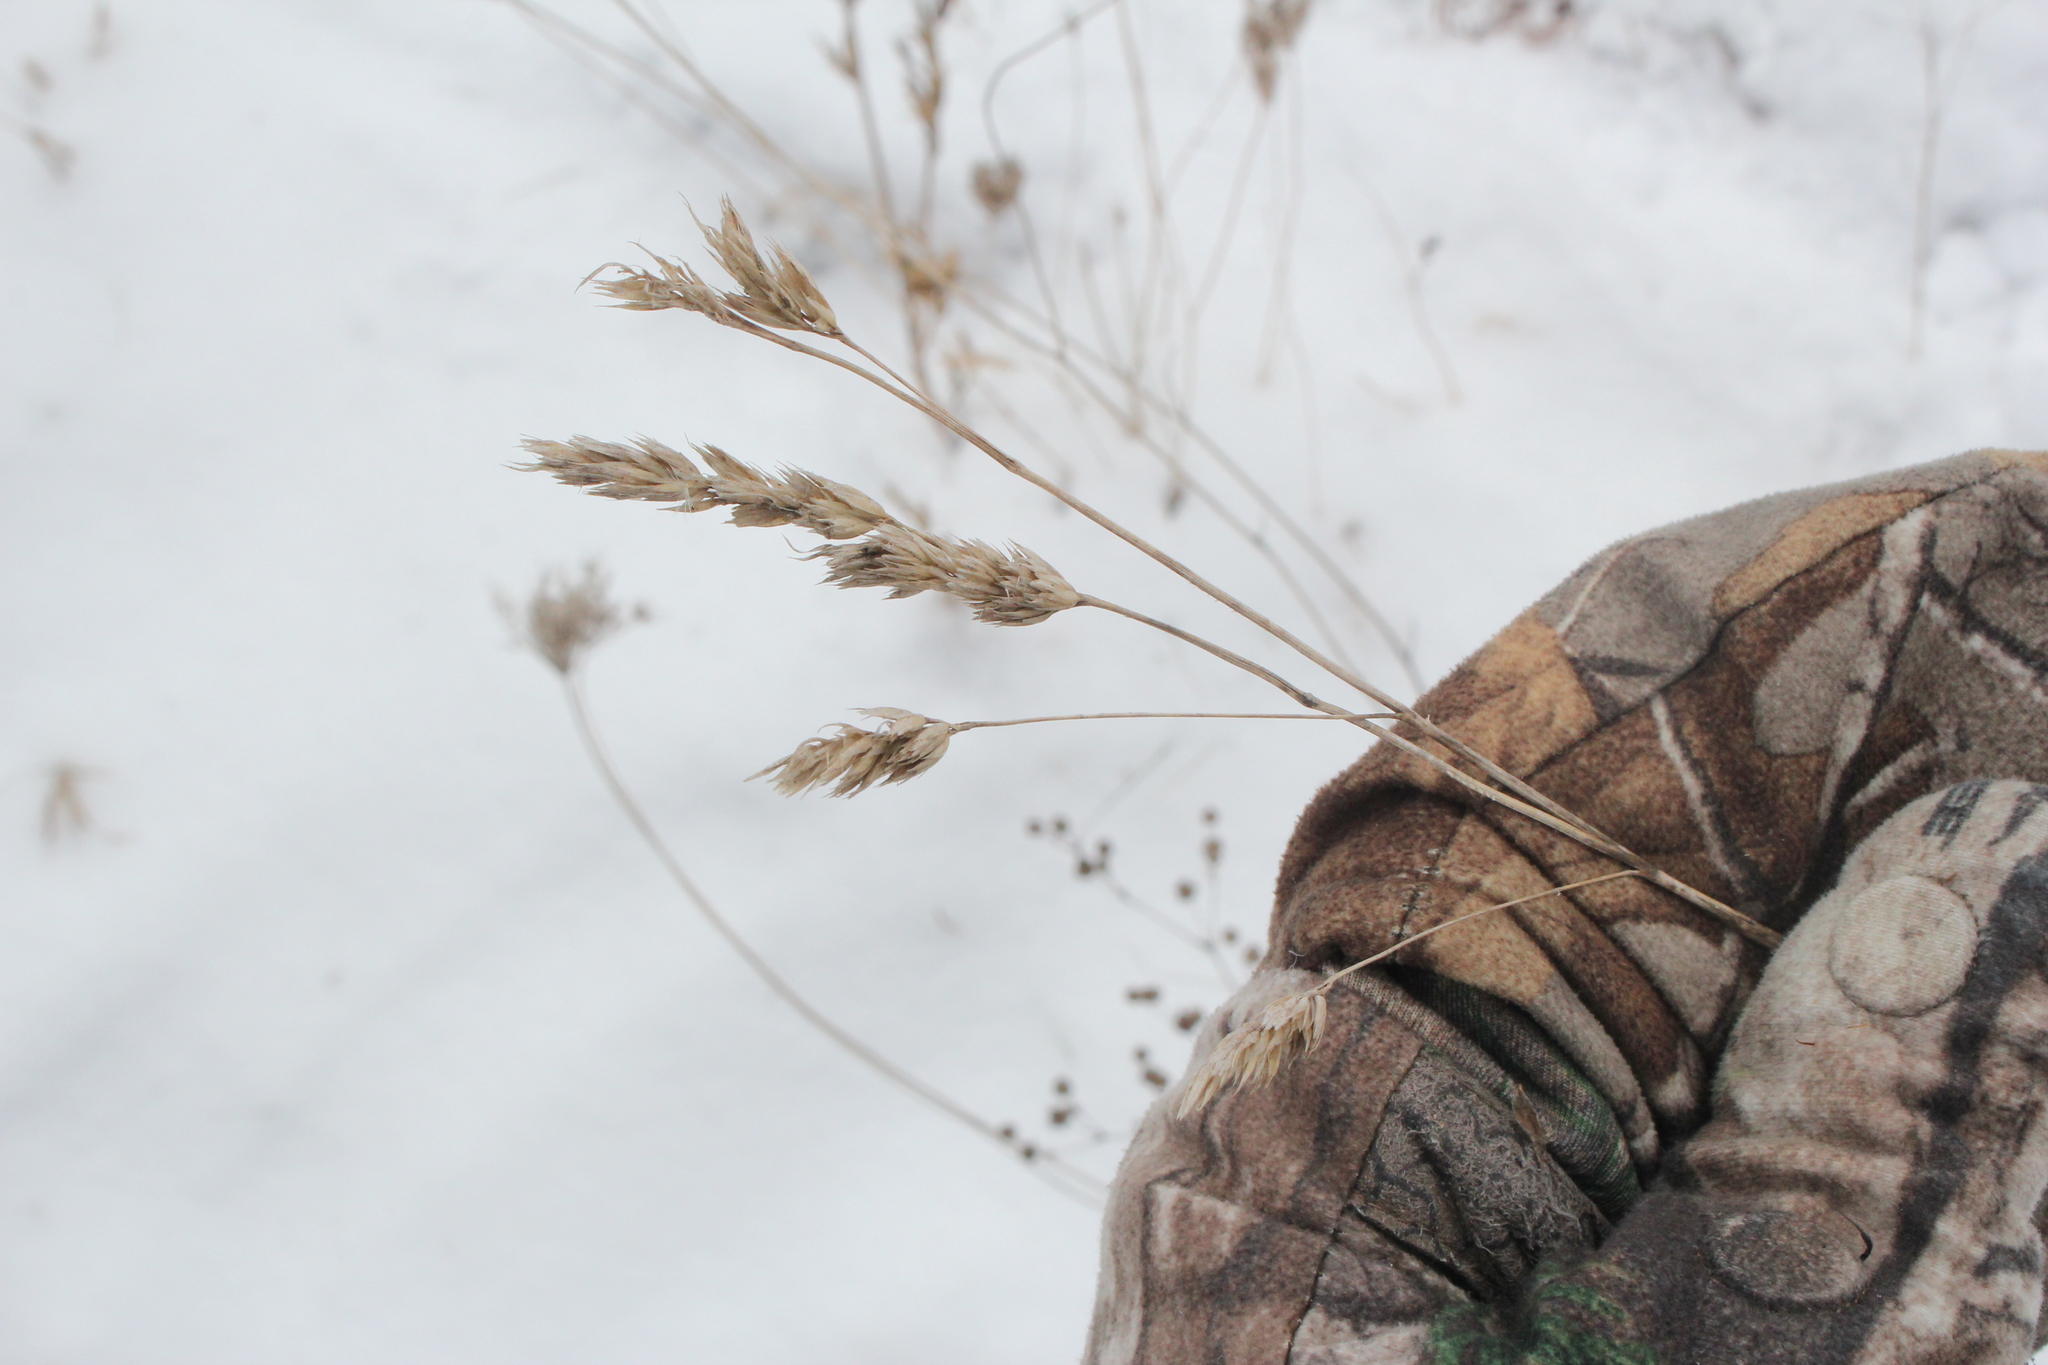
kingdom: Plantae
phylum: Tracheophyta
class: Liliopsida
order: Poales
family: Poaceae
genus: Dactylis
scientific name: Dactylis glomerata
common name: Orchardgrass
